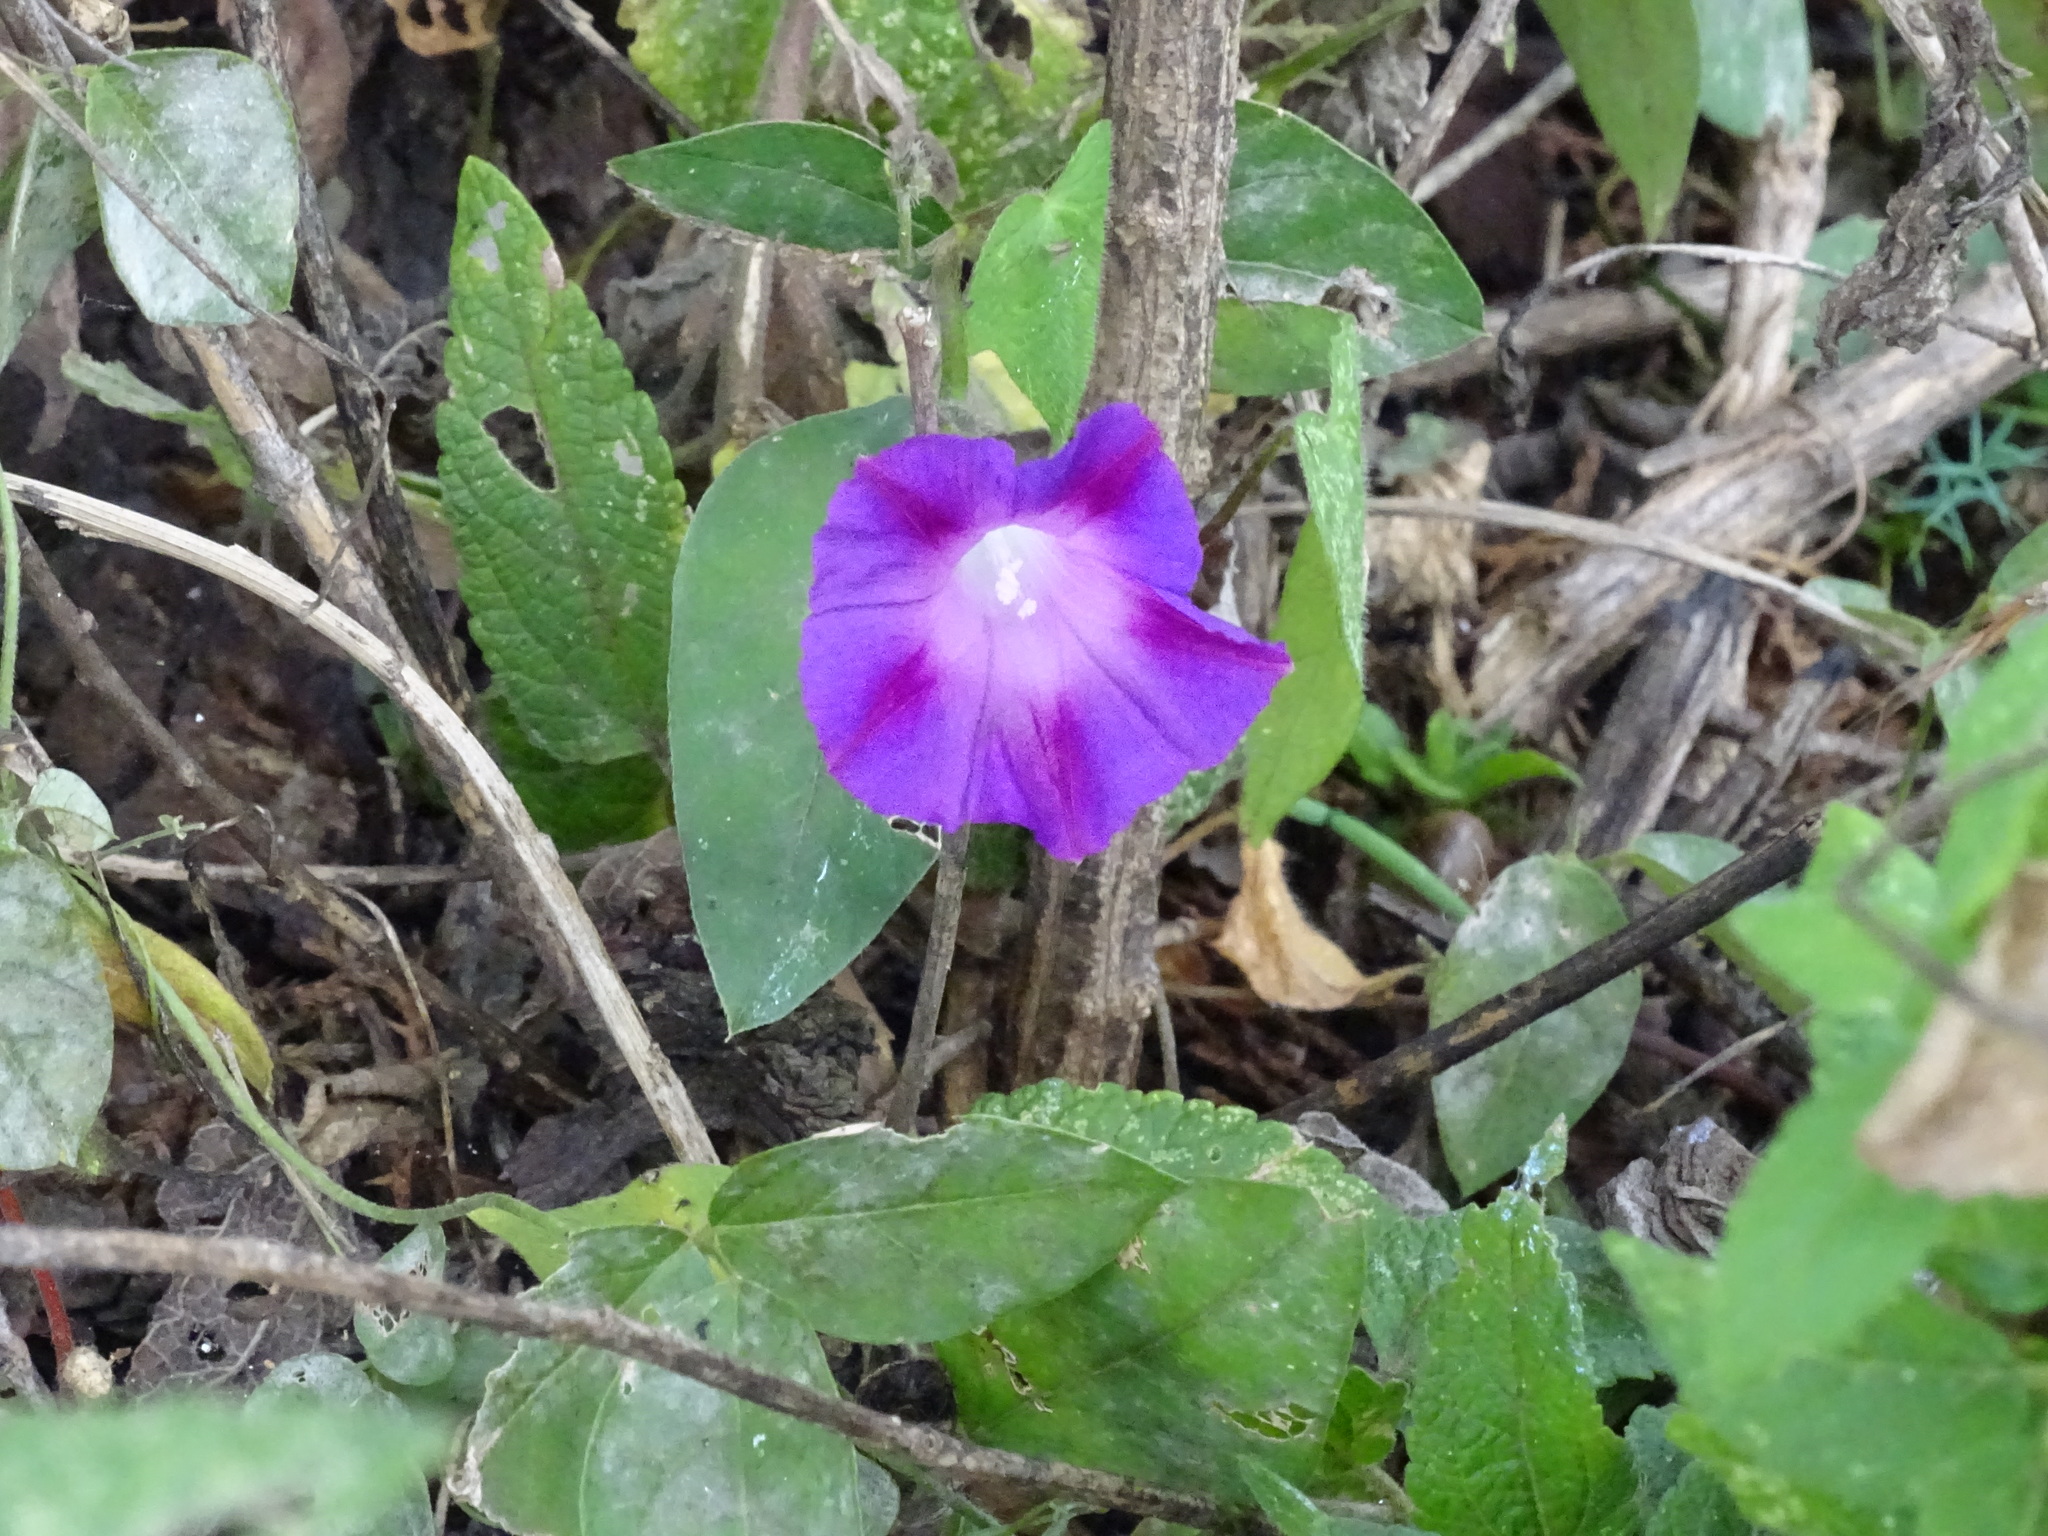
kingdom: Plantae
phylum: Tracheophyta
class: Magnoliopsida
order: Solanales
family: Convolvulaceae
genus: Ipomoea
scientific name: Ipomoea purpurea
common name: Common morning-glory
